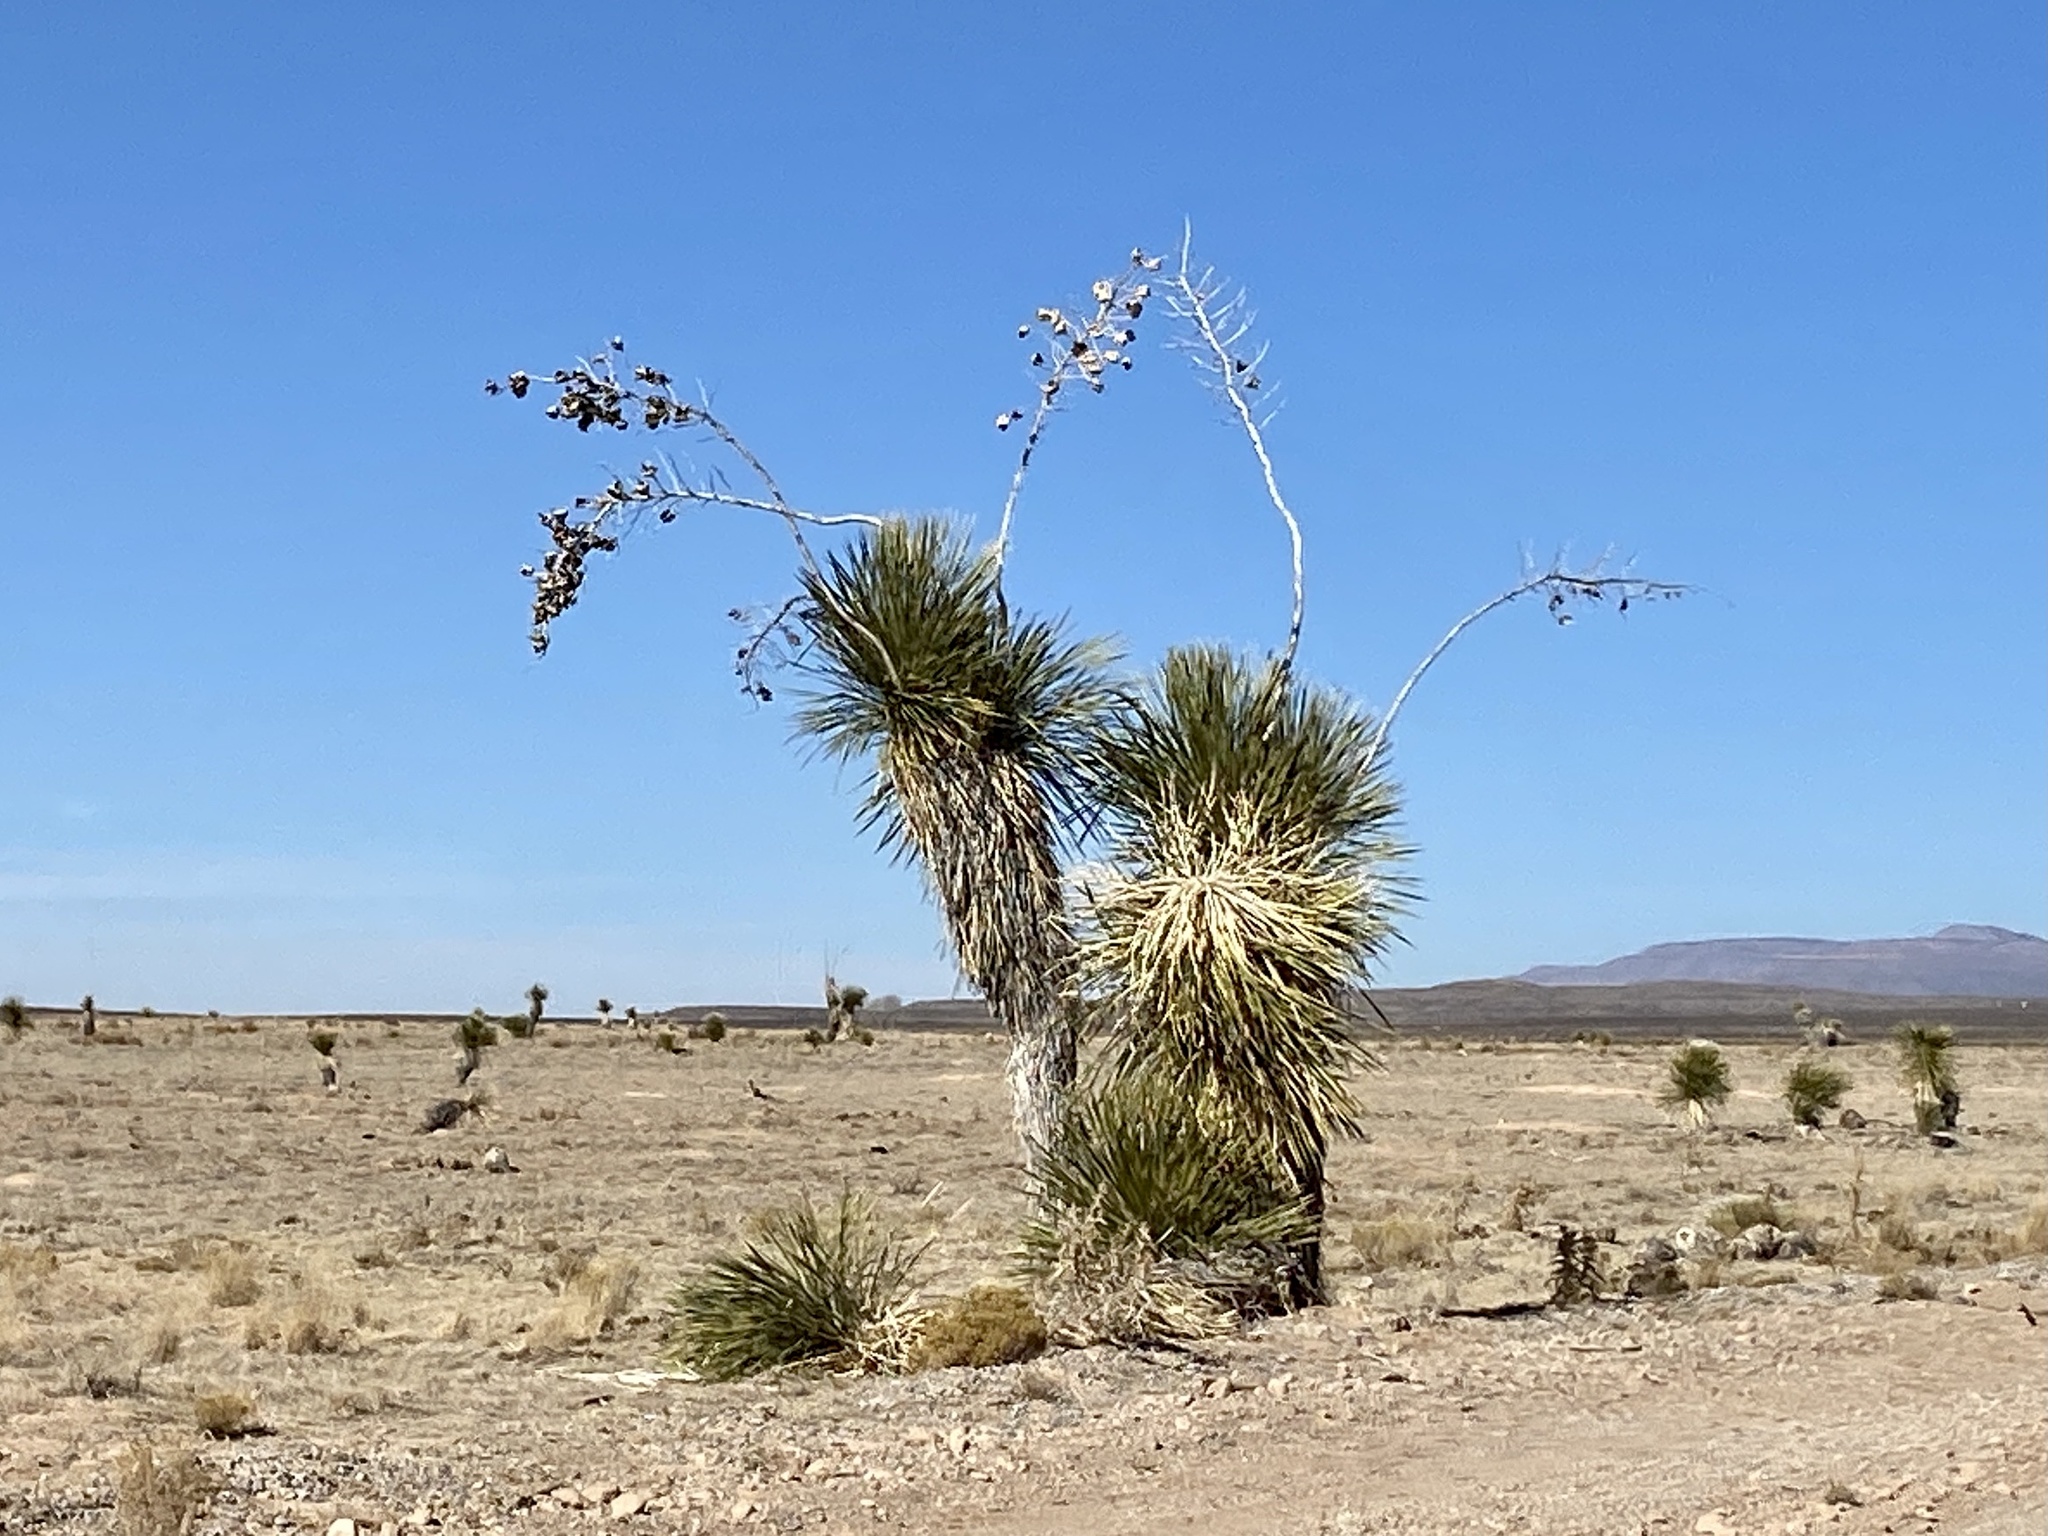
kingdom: Plantae
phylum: Tracheophyta
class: Liliopsida
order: Asparagales
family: Asparagaceae
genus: Yucca
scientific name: Yucca elata
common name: Palmella
